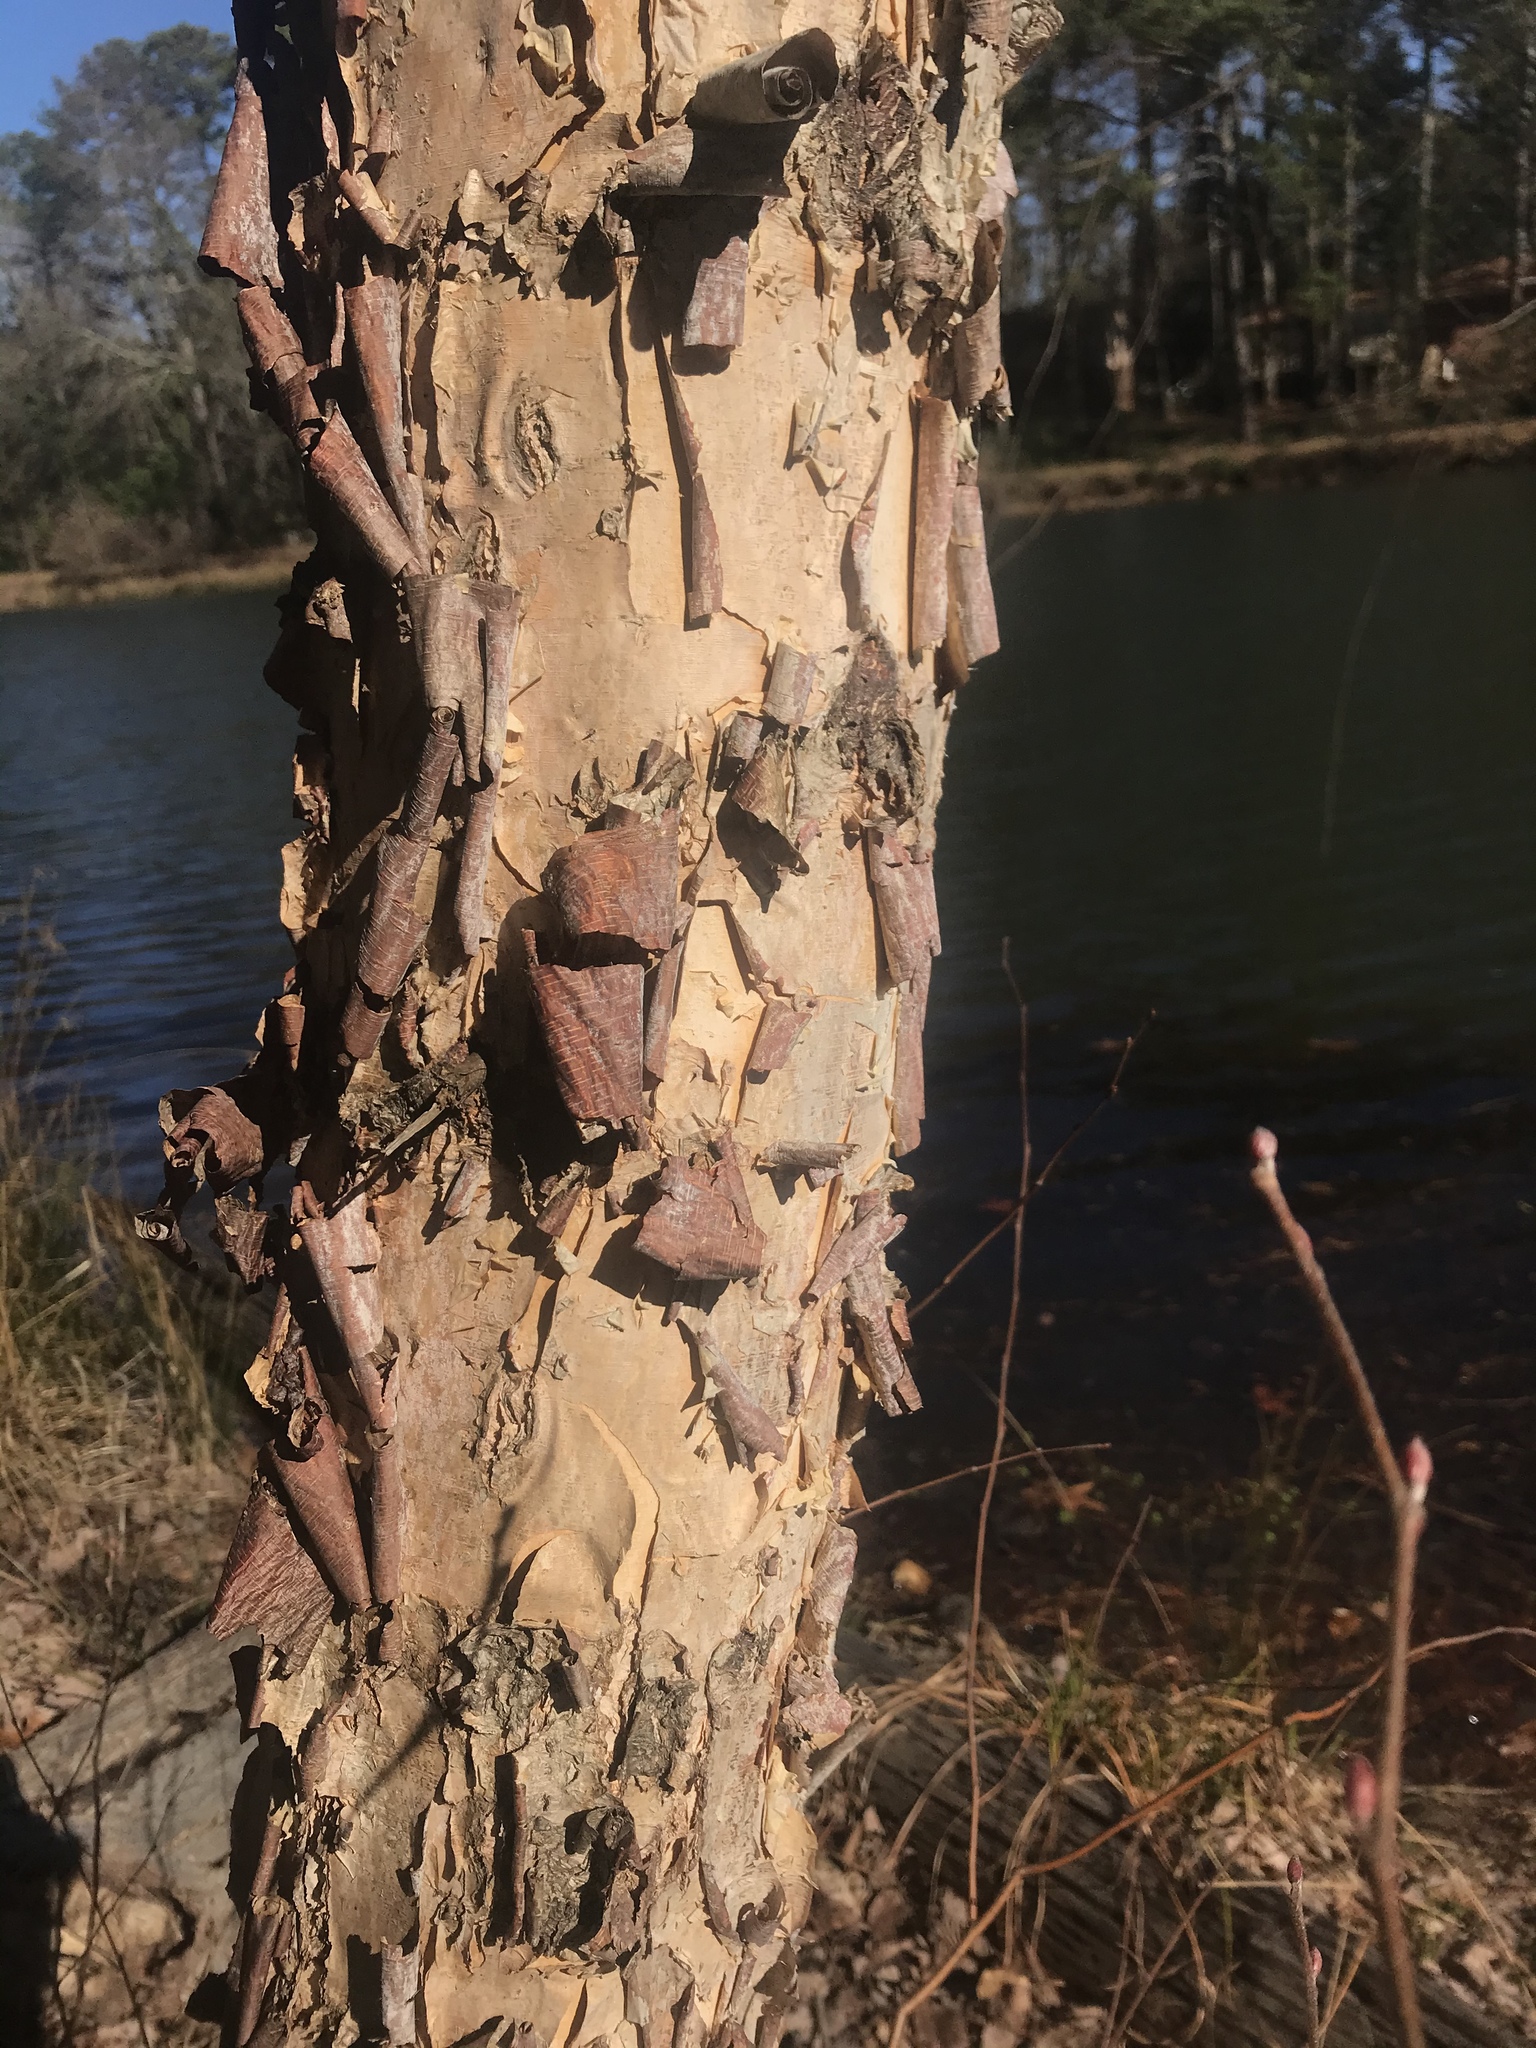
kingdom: Plantae
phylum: Tracheophyta
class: Magnoliopsida
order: Fagales
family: Betulaceae
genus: Betula
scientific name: Betula nigra
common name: Black birch
